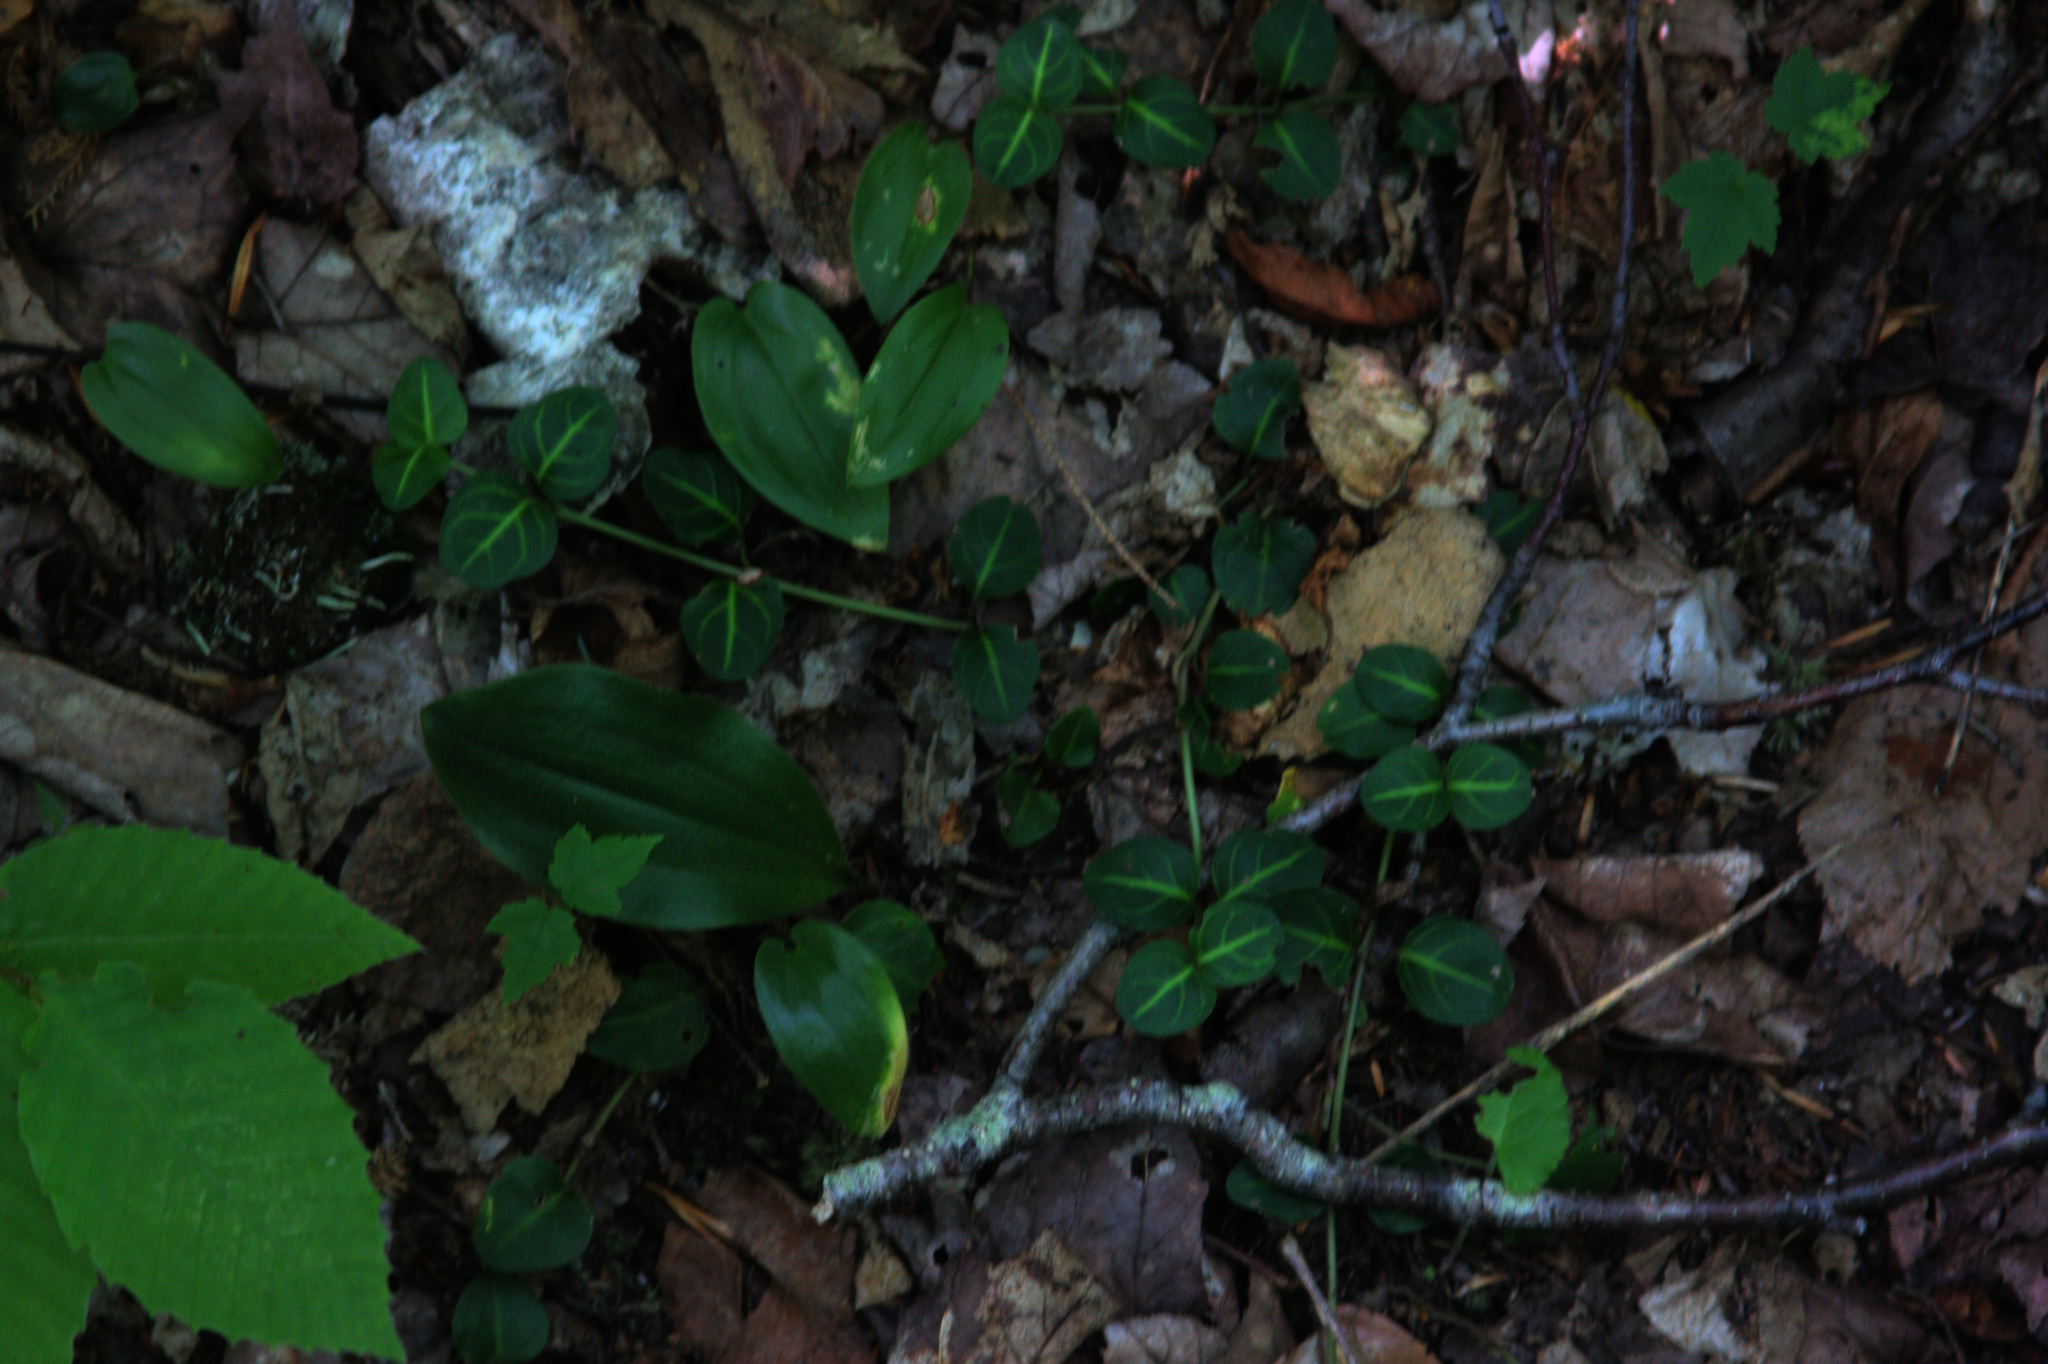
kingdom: Plantae
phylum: Tracheophyta
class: Magnoliopsida
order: Gentianales
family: Rubiaceae
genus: Mitchella
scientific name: Mitchella repens
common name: Partridge-berry
